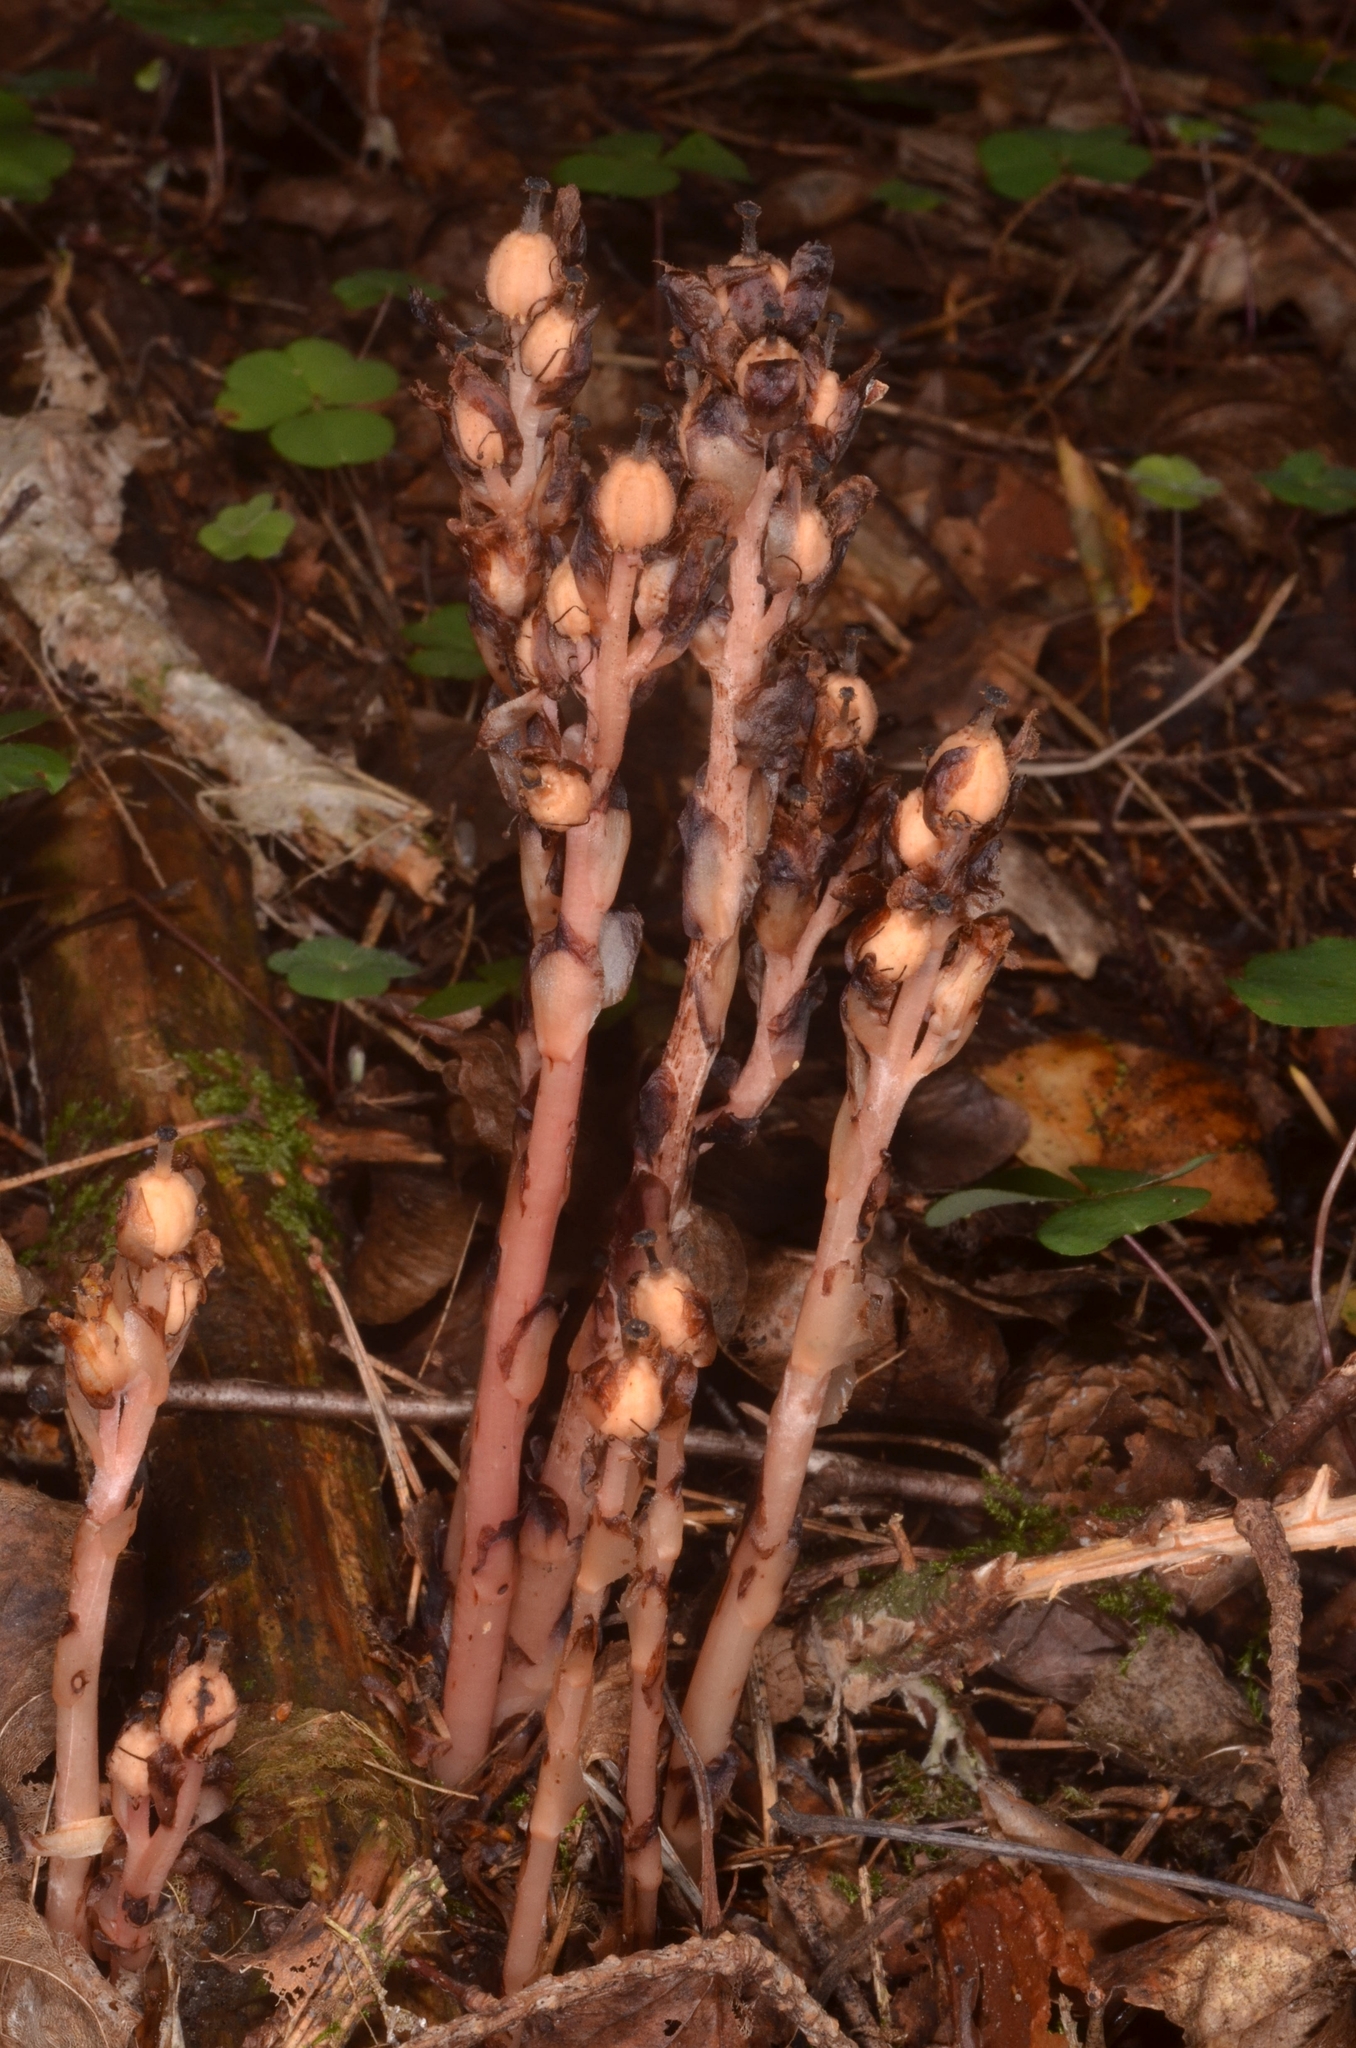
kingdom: Plantae
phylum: Tracheophyta
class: Magnoliopsida
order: Ericales
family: Ericaceae
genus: Hypopitys
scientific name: Hypopitys monotropa
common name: Yellow bird's-nest
